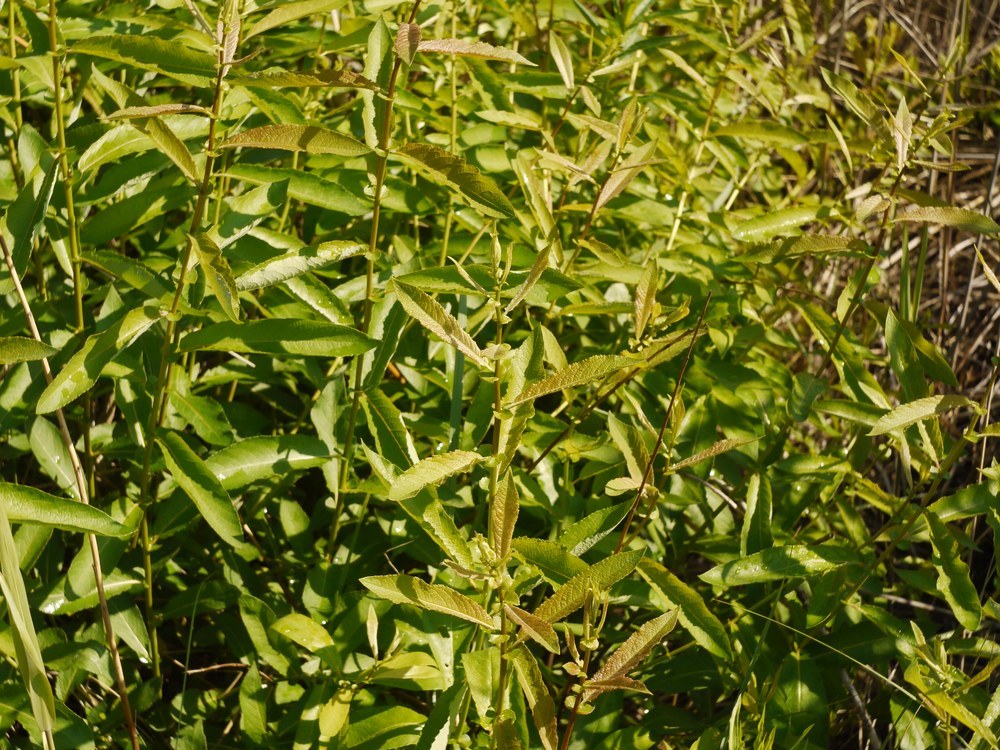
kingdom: Plantae
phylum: Tracheophyta
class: Magnoliopsida
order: Malpighiales
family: Salicaceae
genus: Salix
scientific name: Salix cinerea
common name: Common sallow
